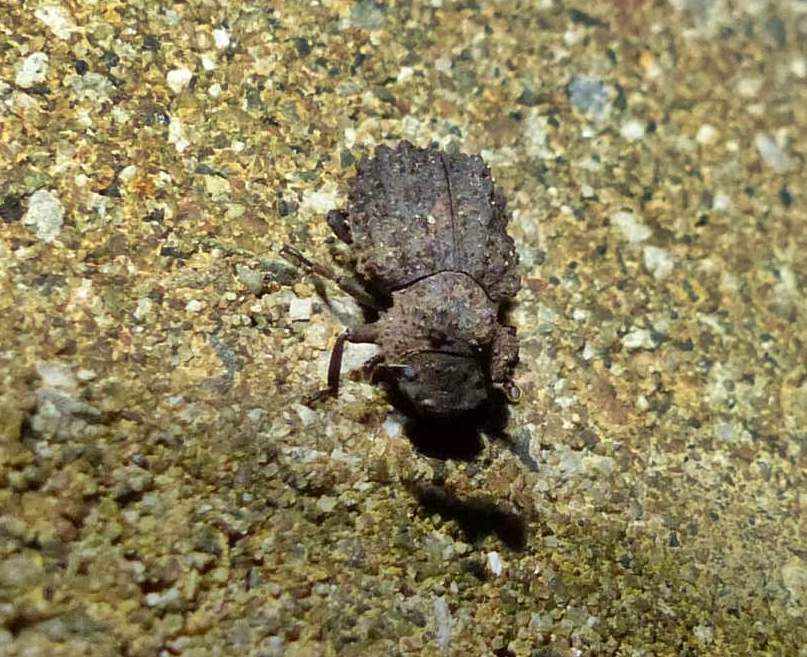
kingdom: Animalia
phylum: Arthropoda
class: Insecta
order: Coleoptera
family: Tenebrionidae
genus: Gnatocerus
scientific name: Gnatocerus cornutus
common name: Broad-horned flour beetle
